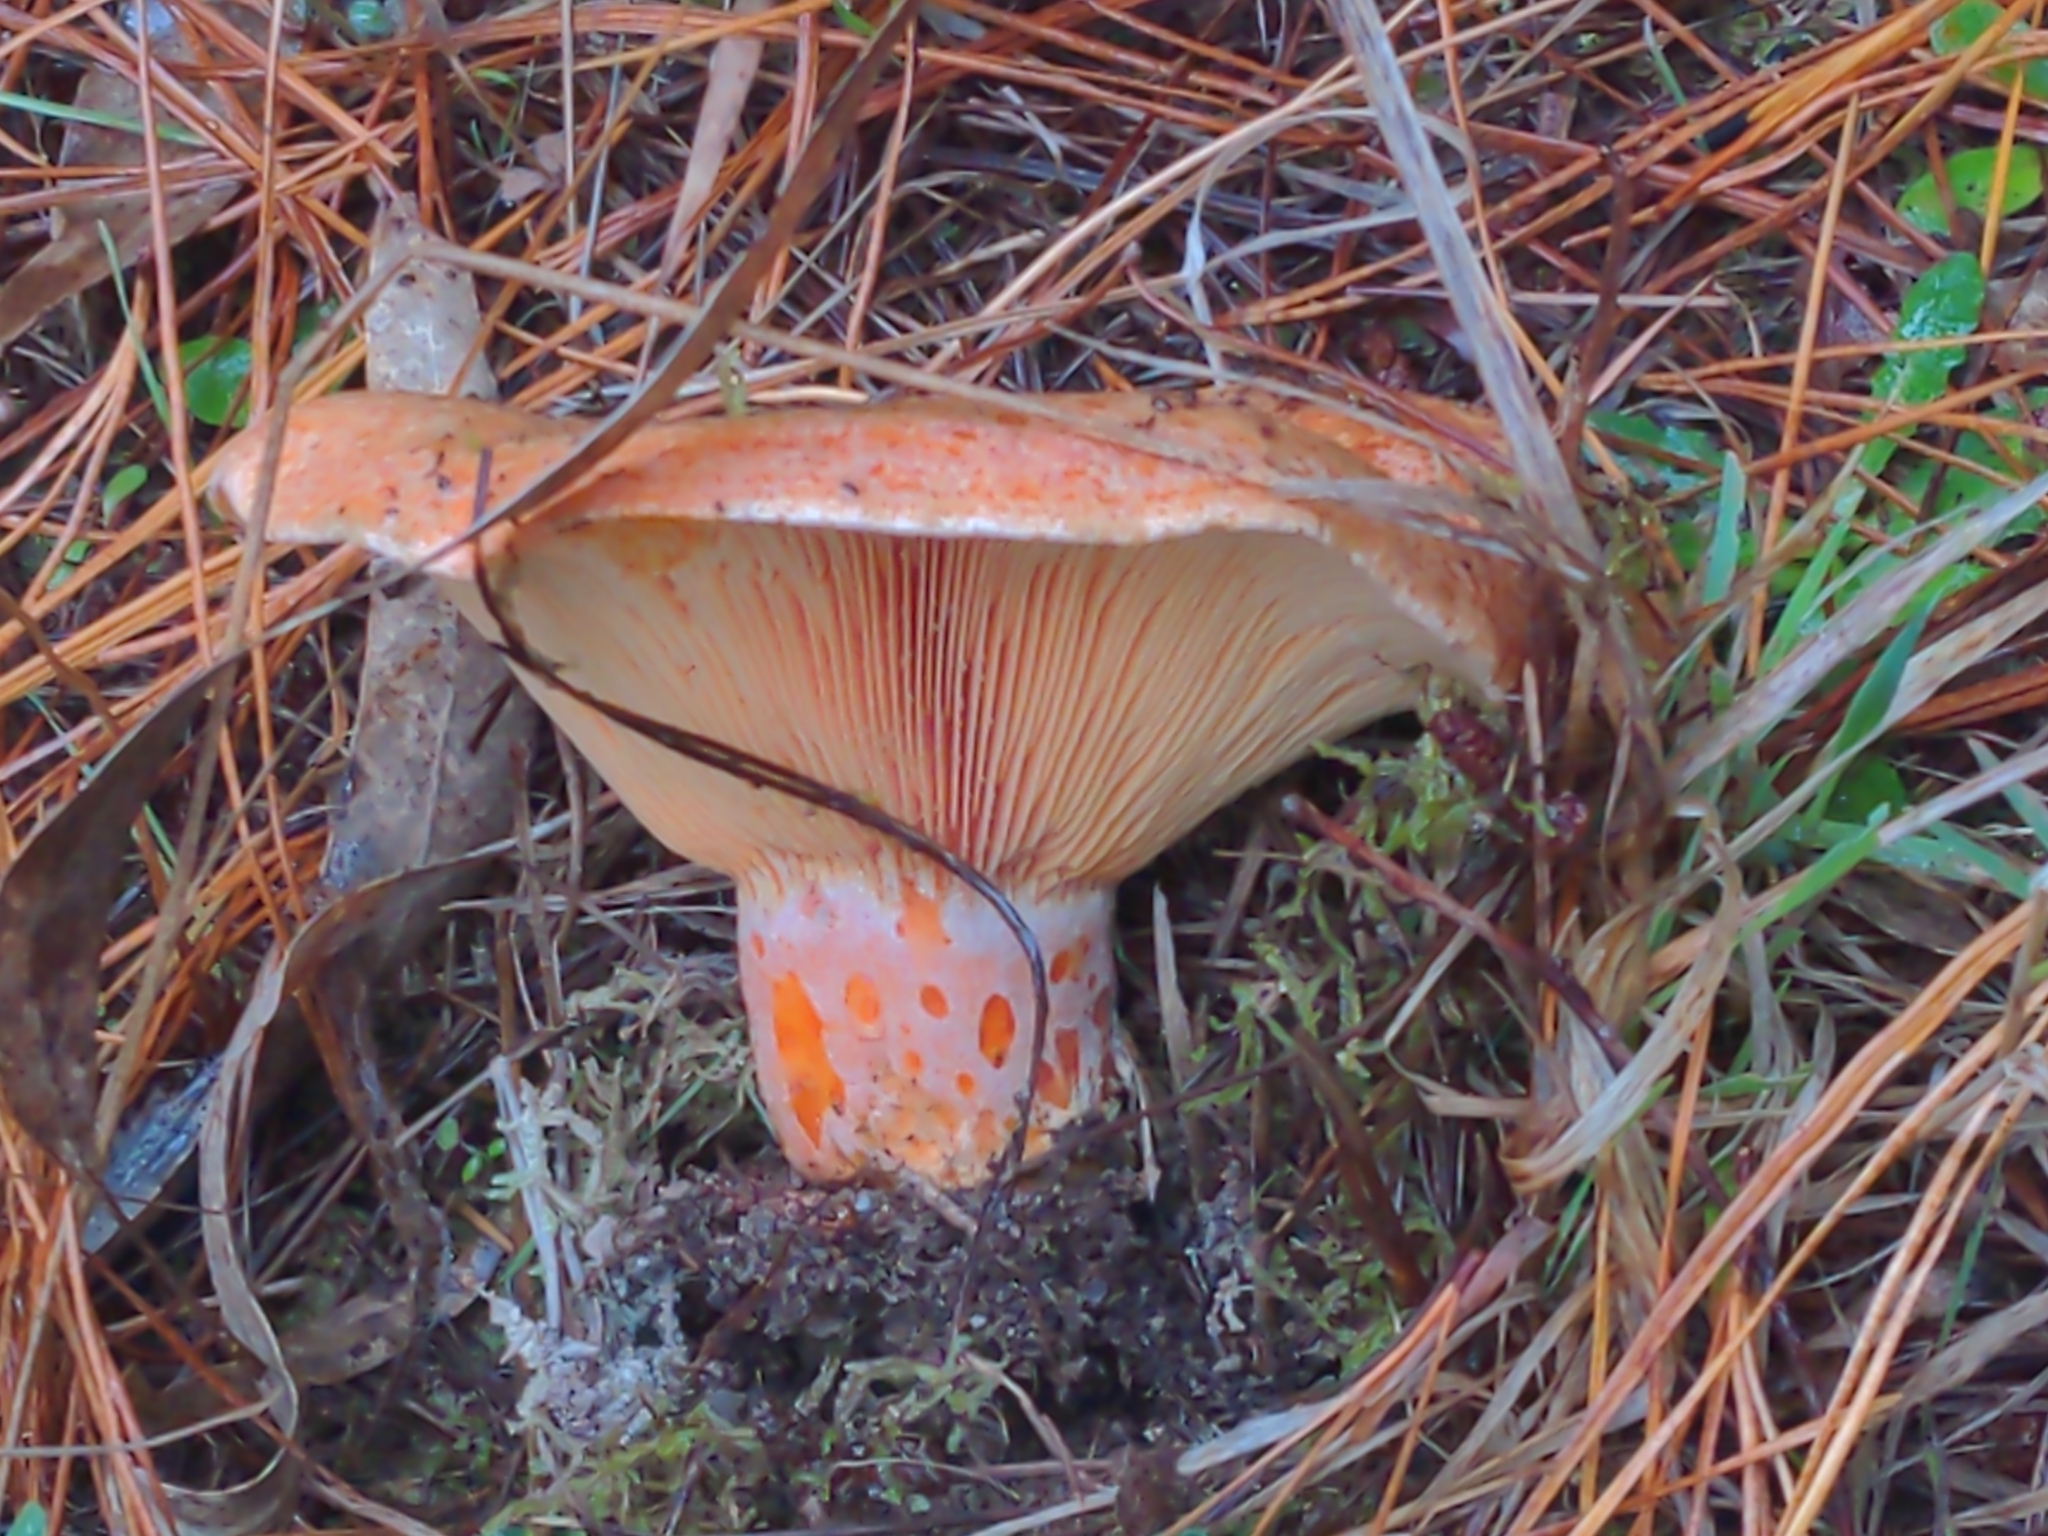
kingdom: Fungi
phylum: Basidiomycota
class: Agaricomycetes
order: Russulales
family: Russulaceae
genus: Lactarius
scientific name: Lactarius deliciosus
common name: Saffron milk-cap
